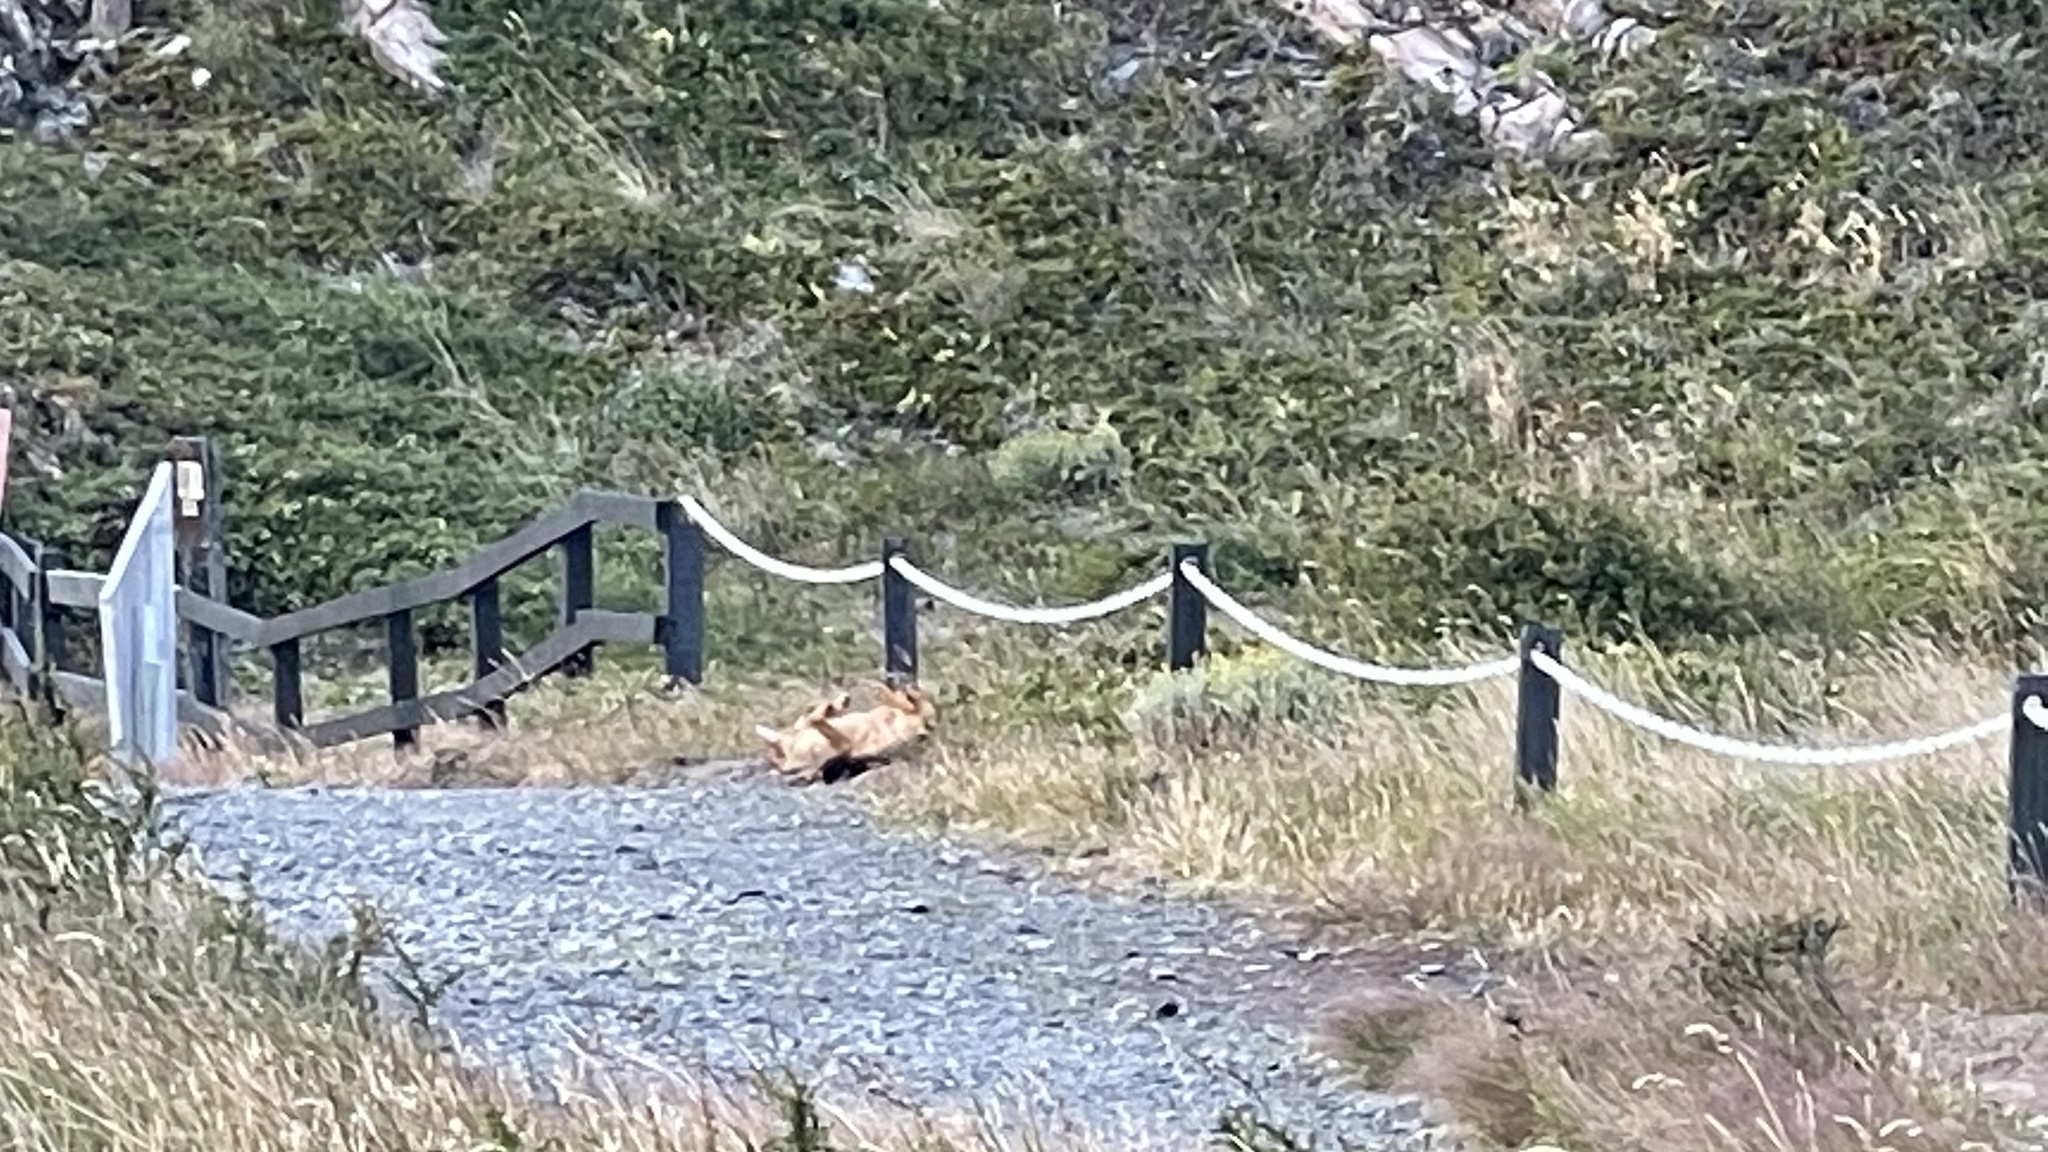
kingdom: Animalia
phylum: Chordata
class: Mammalia
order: Carnivora
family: Canidae
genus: Lycalopex
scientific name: Lycalopex culpaeus
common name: Culpeo
